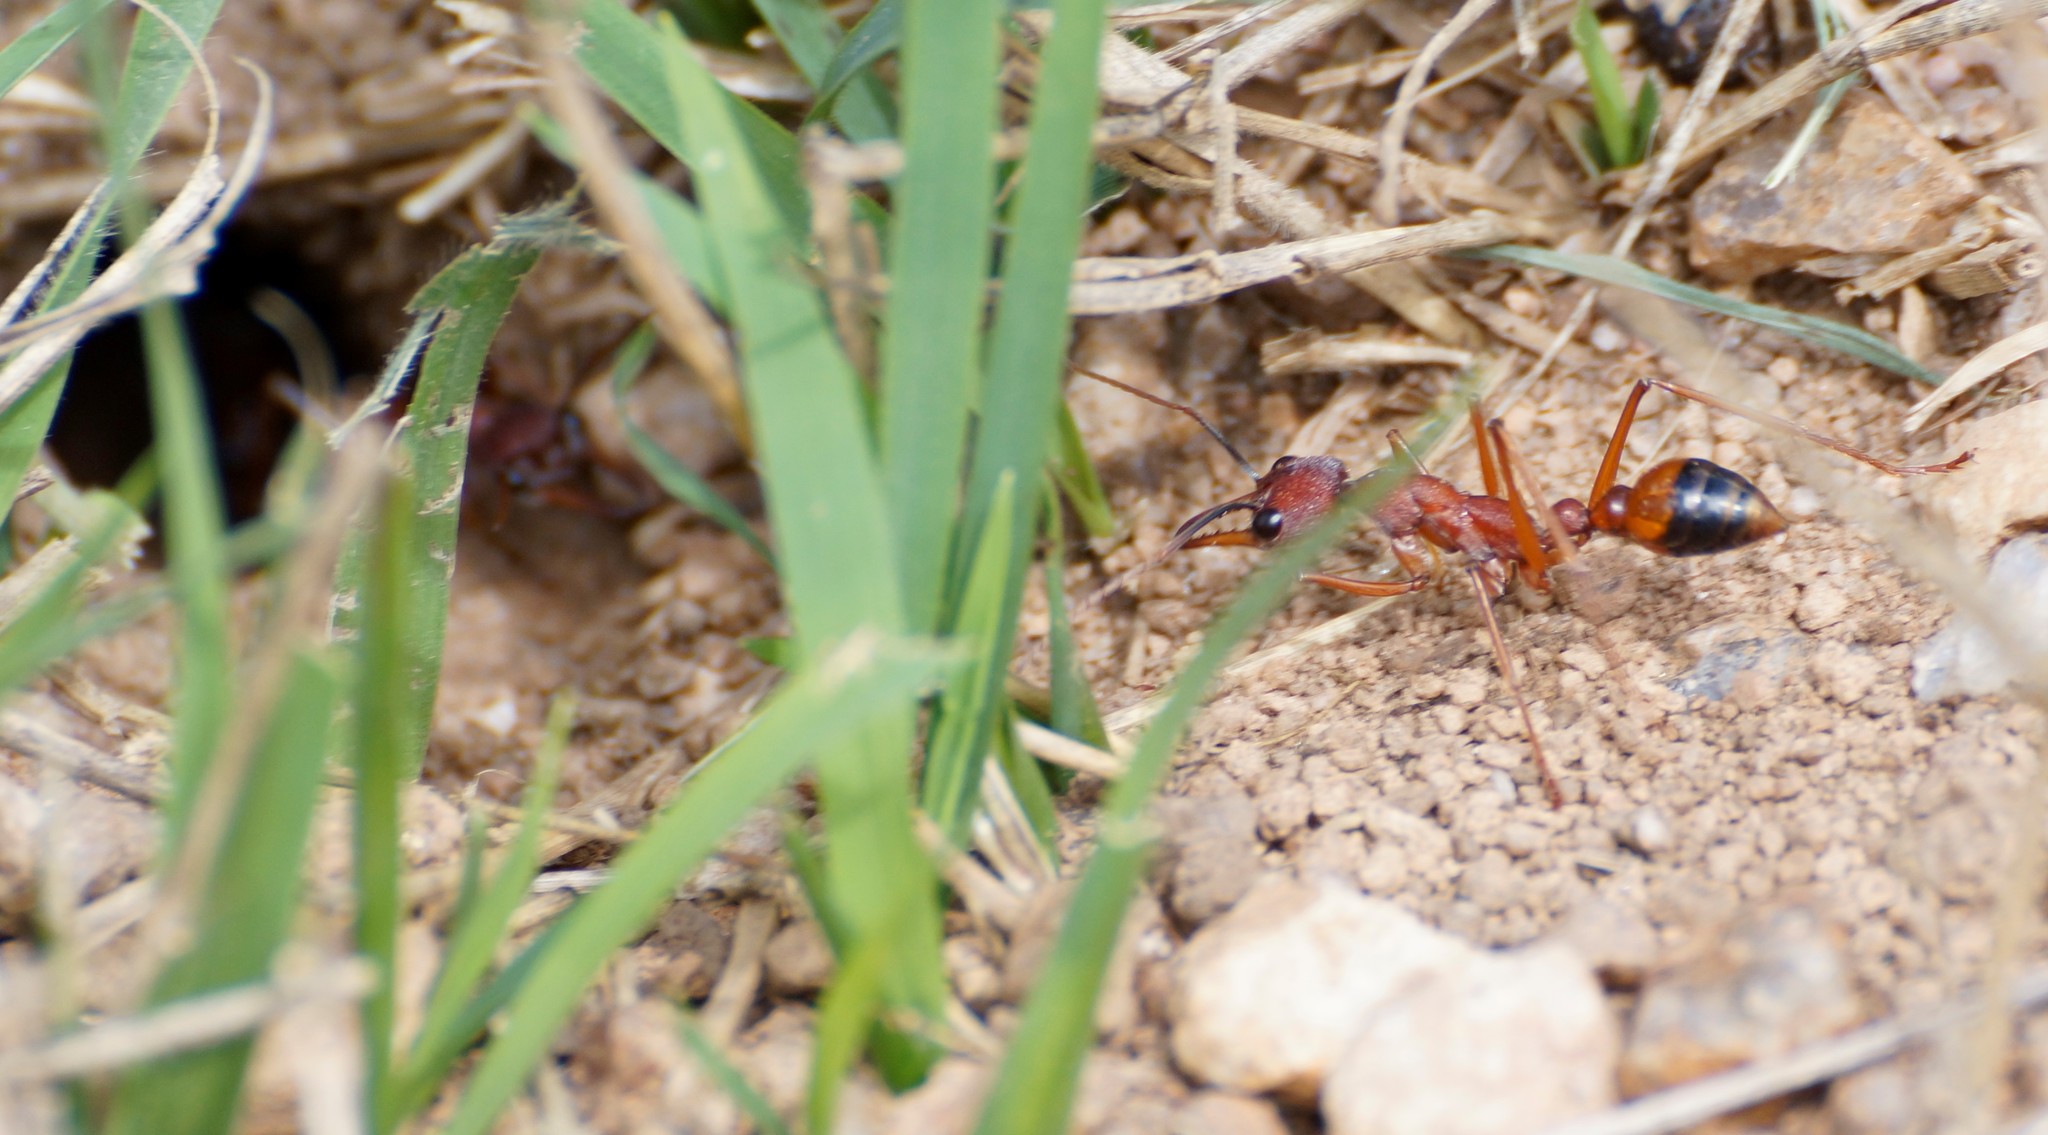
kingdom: Animalia
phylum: Arthropoda
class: Insecta
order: Hymenoptera
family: Formicidae
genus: Myrmecia
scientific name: Myrmecia nigriscapa
